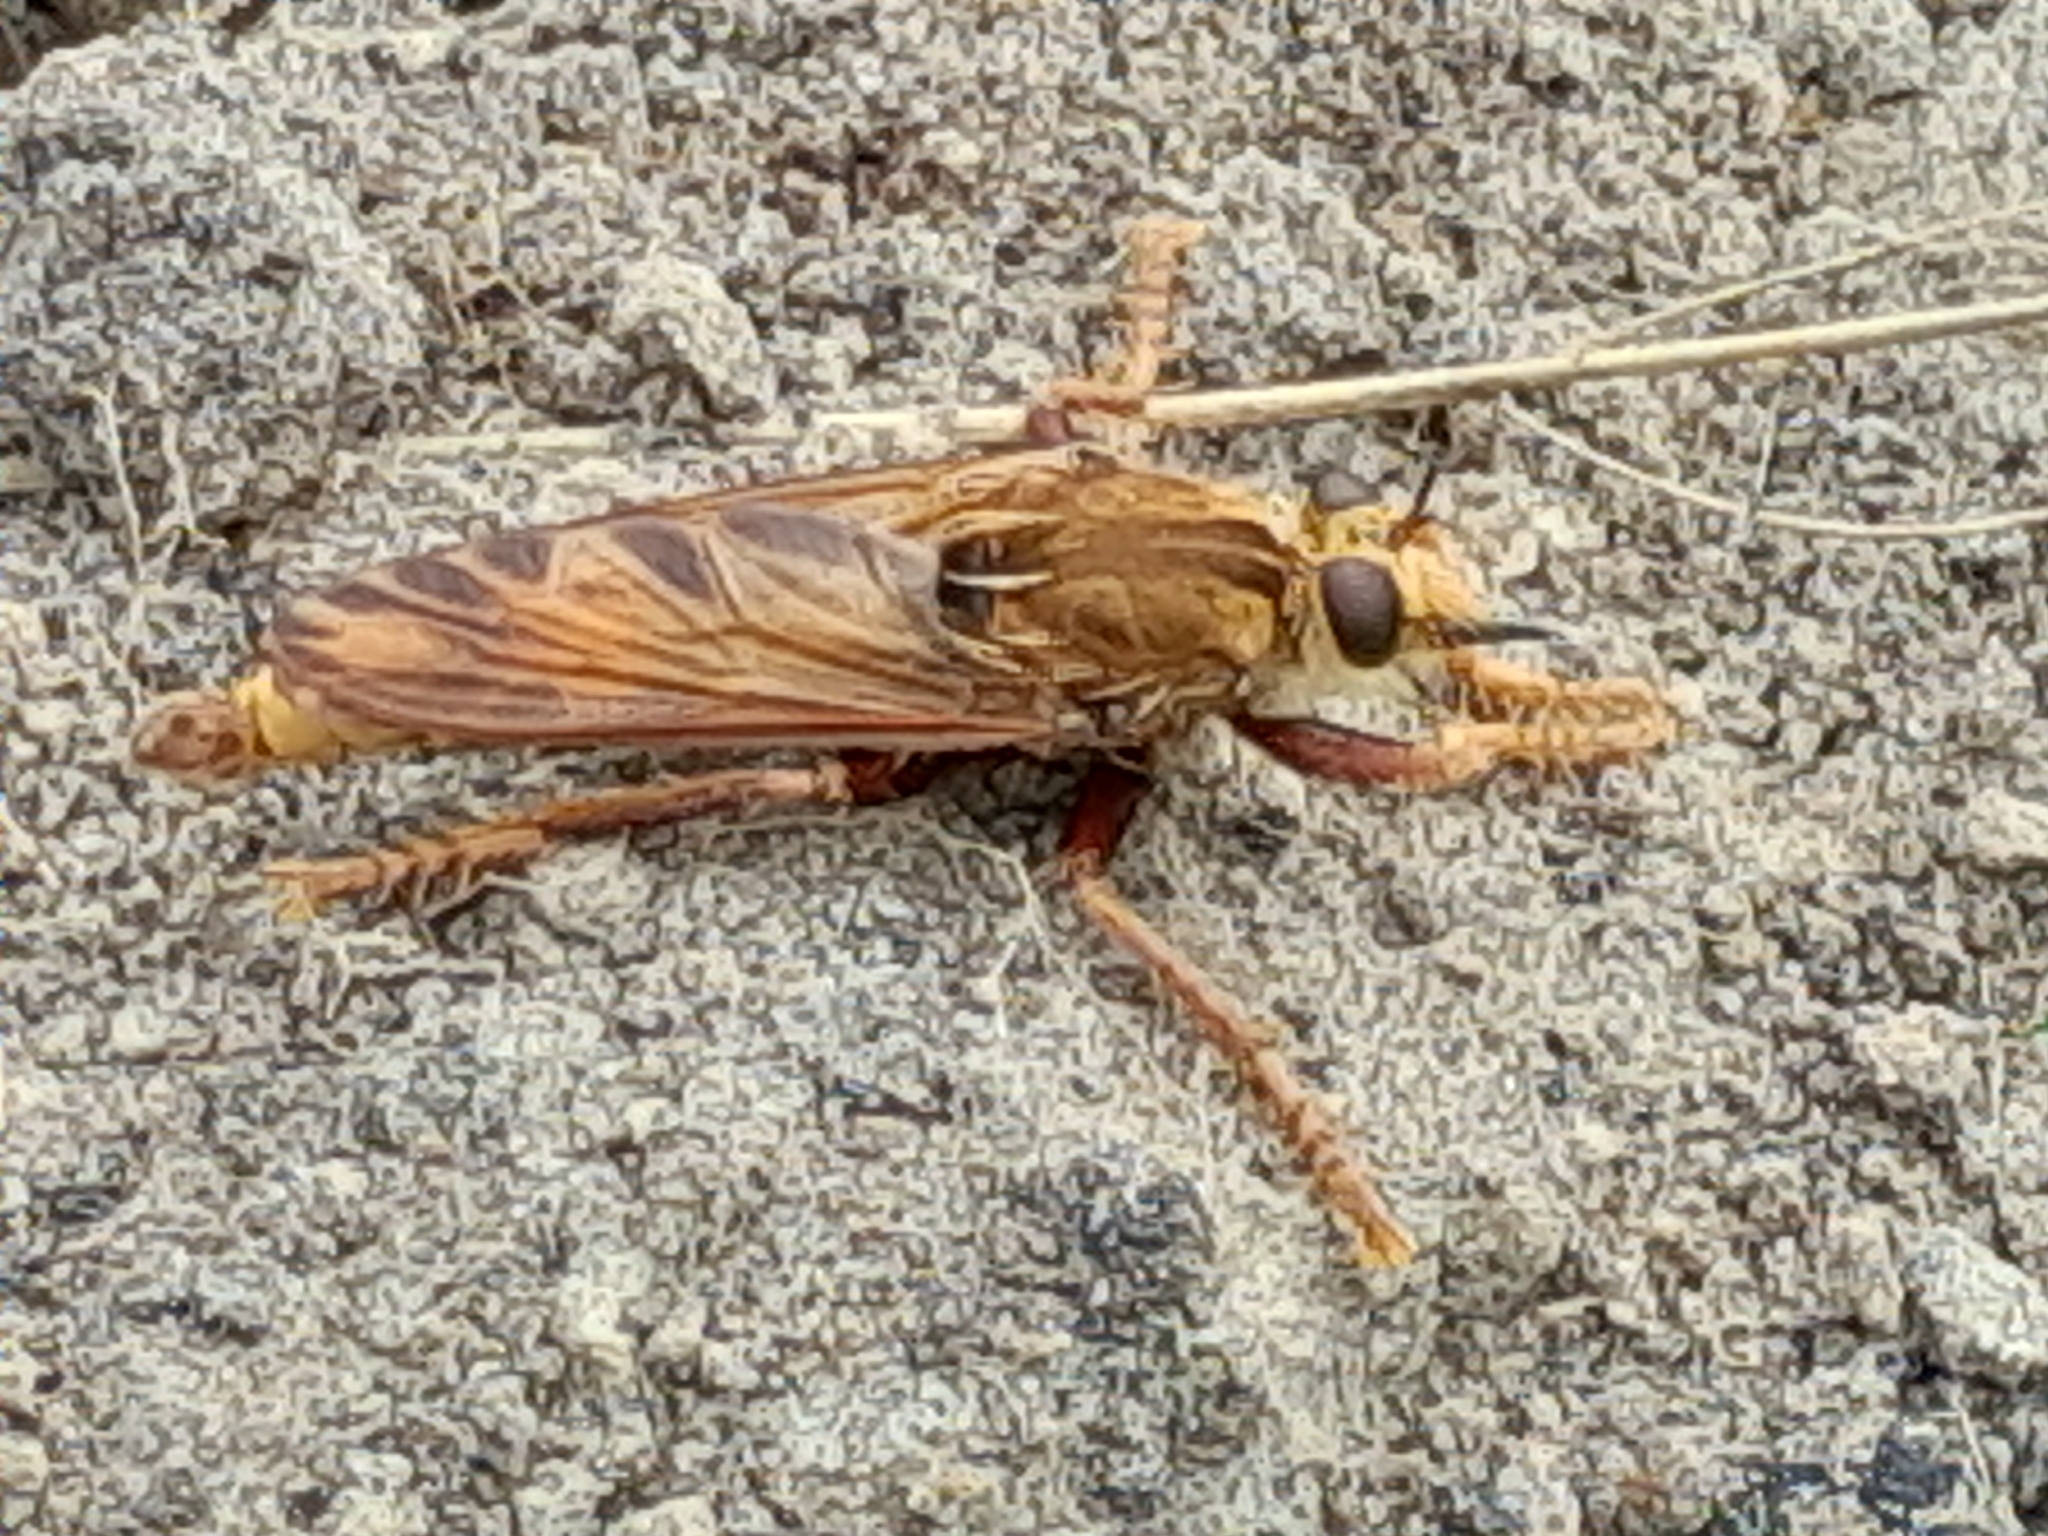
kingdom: Animalia
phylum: Arthropoda
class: Insecta
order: Diptera
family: Asilidae
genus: Asilus
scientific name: Asilus crabroniformis
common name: Hornet robberfly
